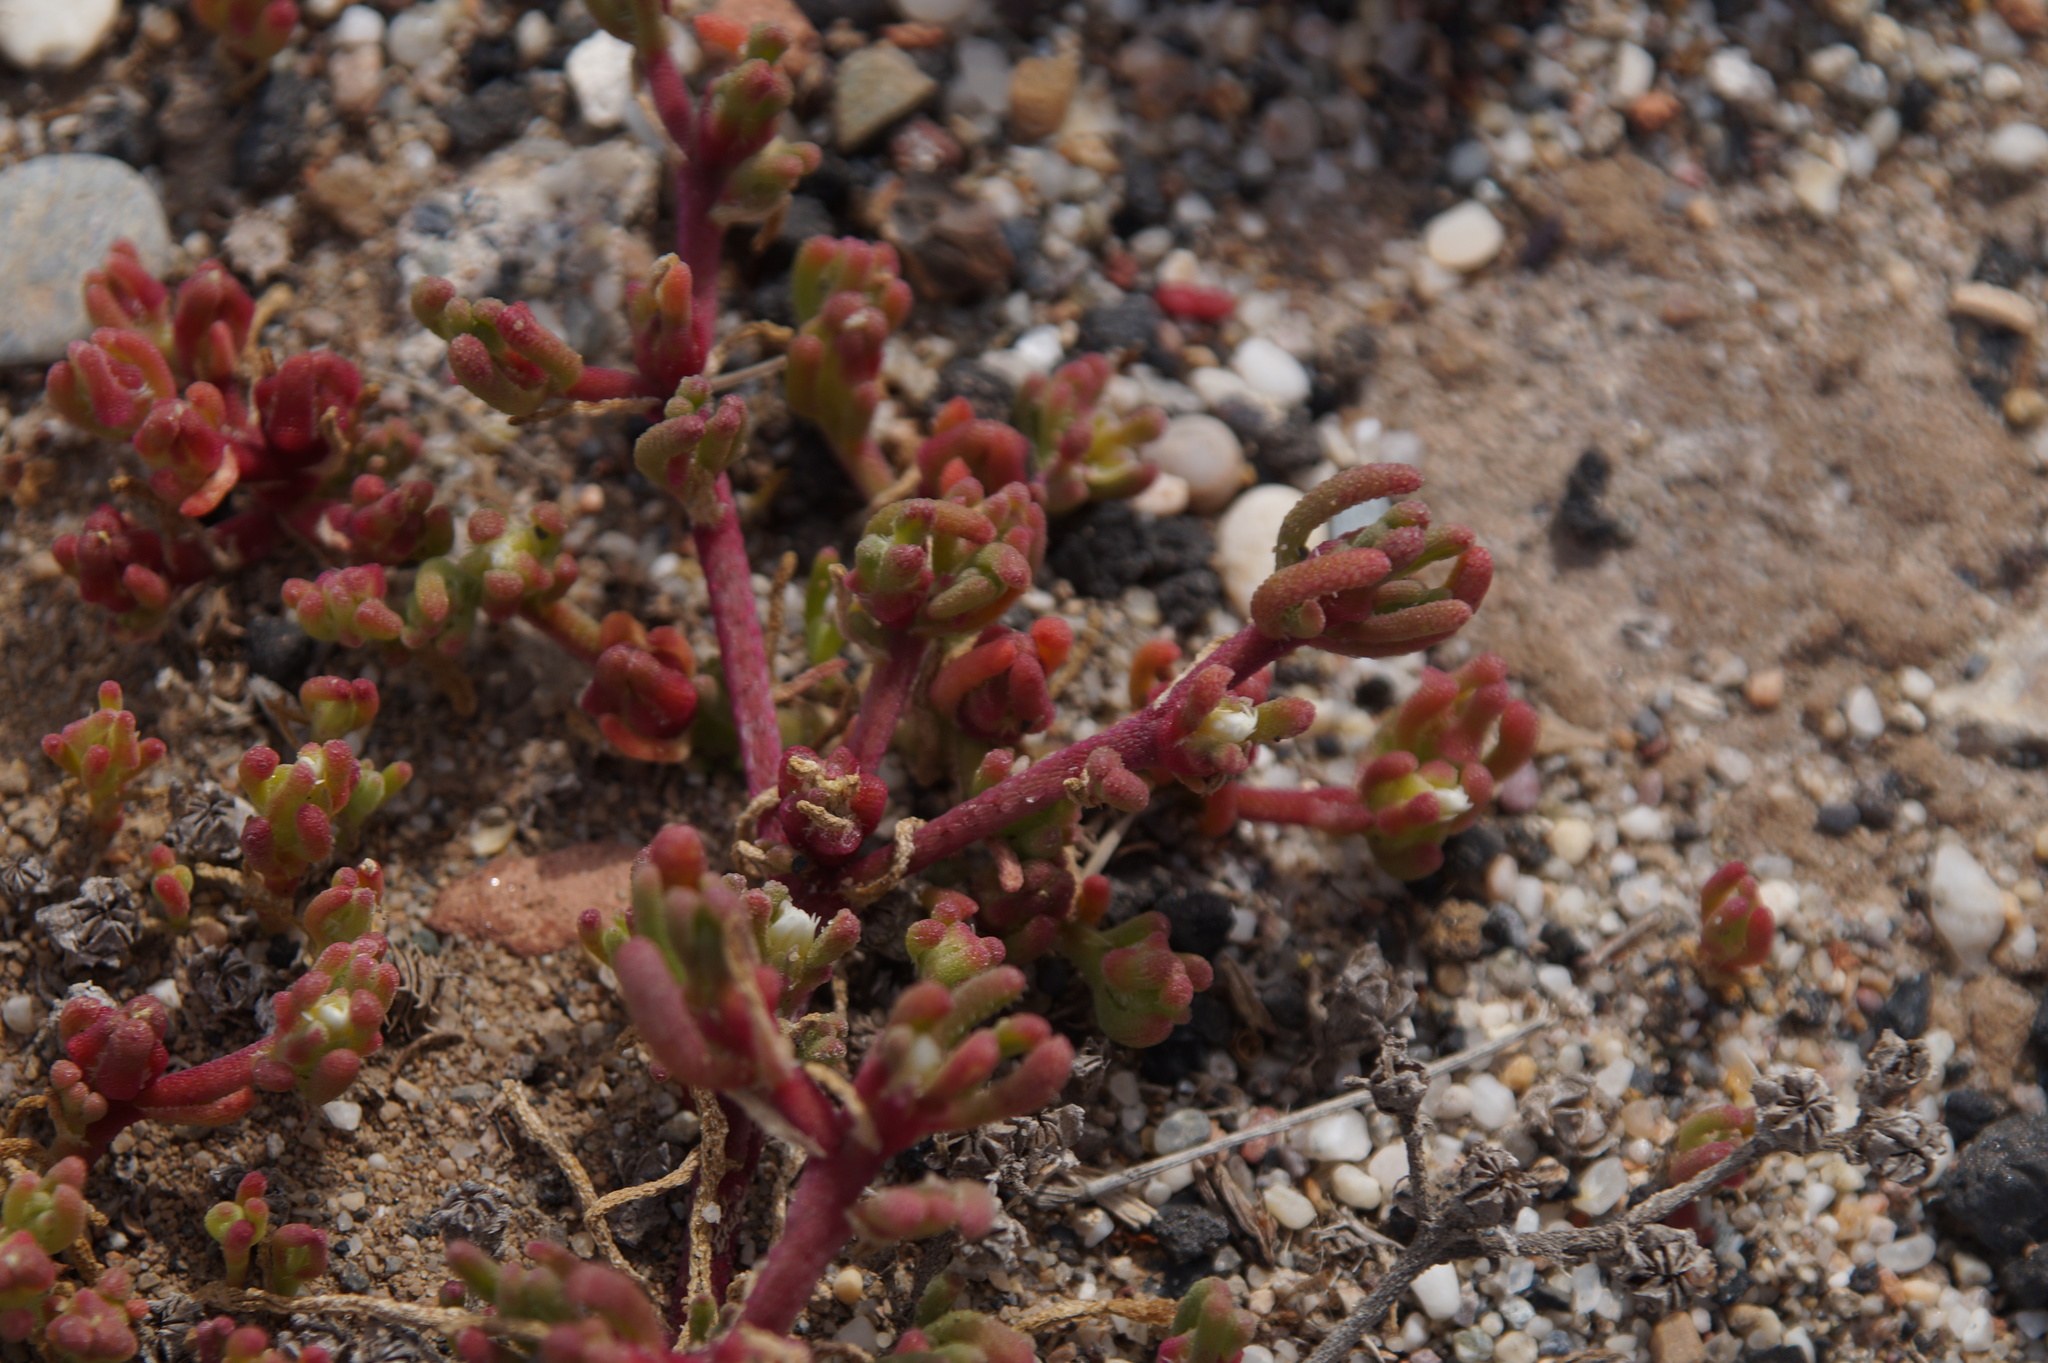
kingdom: Plantae
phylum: Tracheophyta
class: Magnoliopsida
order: Caryophyllales
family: Aizoaceae
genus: Mesembryanthemum
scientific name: Mesembryanthemum nodiflorum
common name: Slenderleaf iceplant
